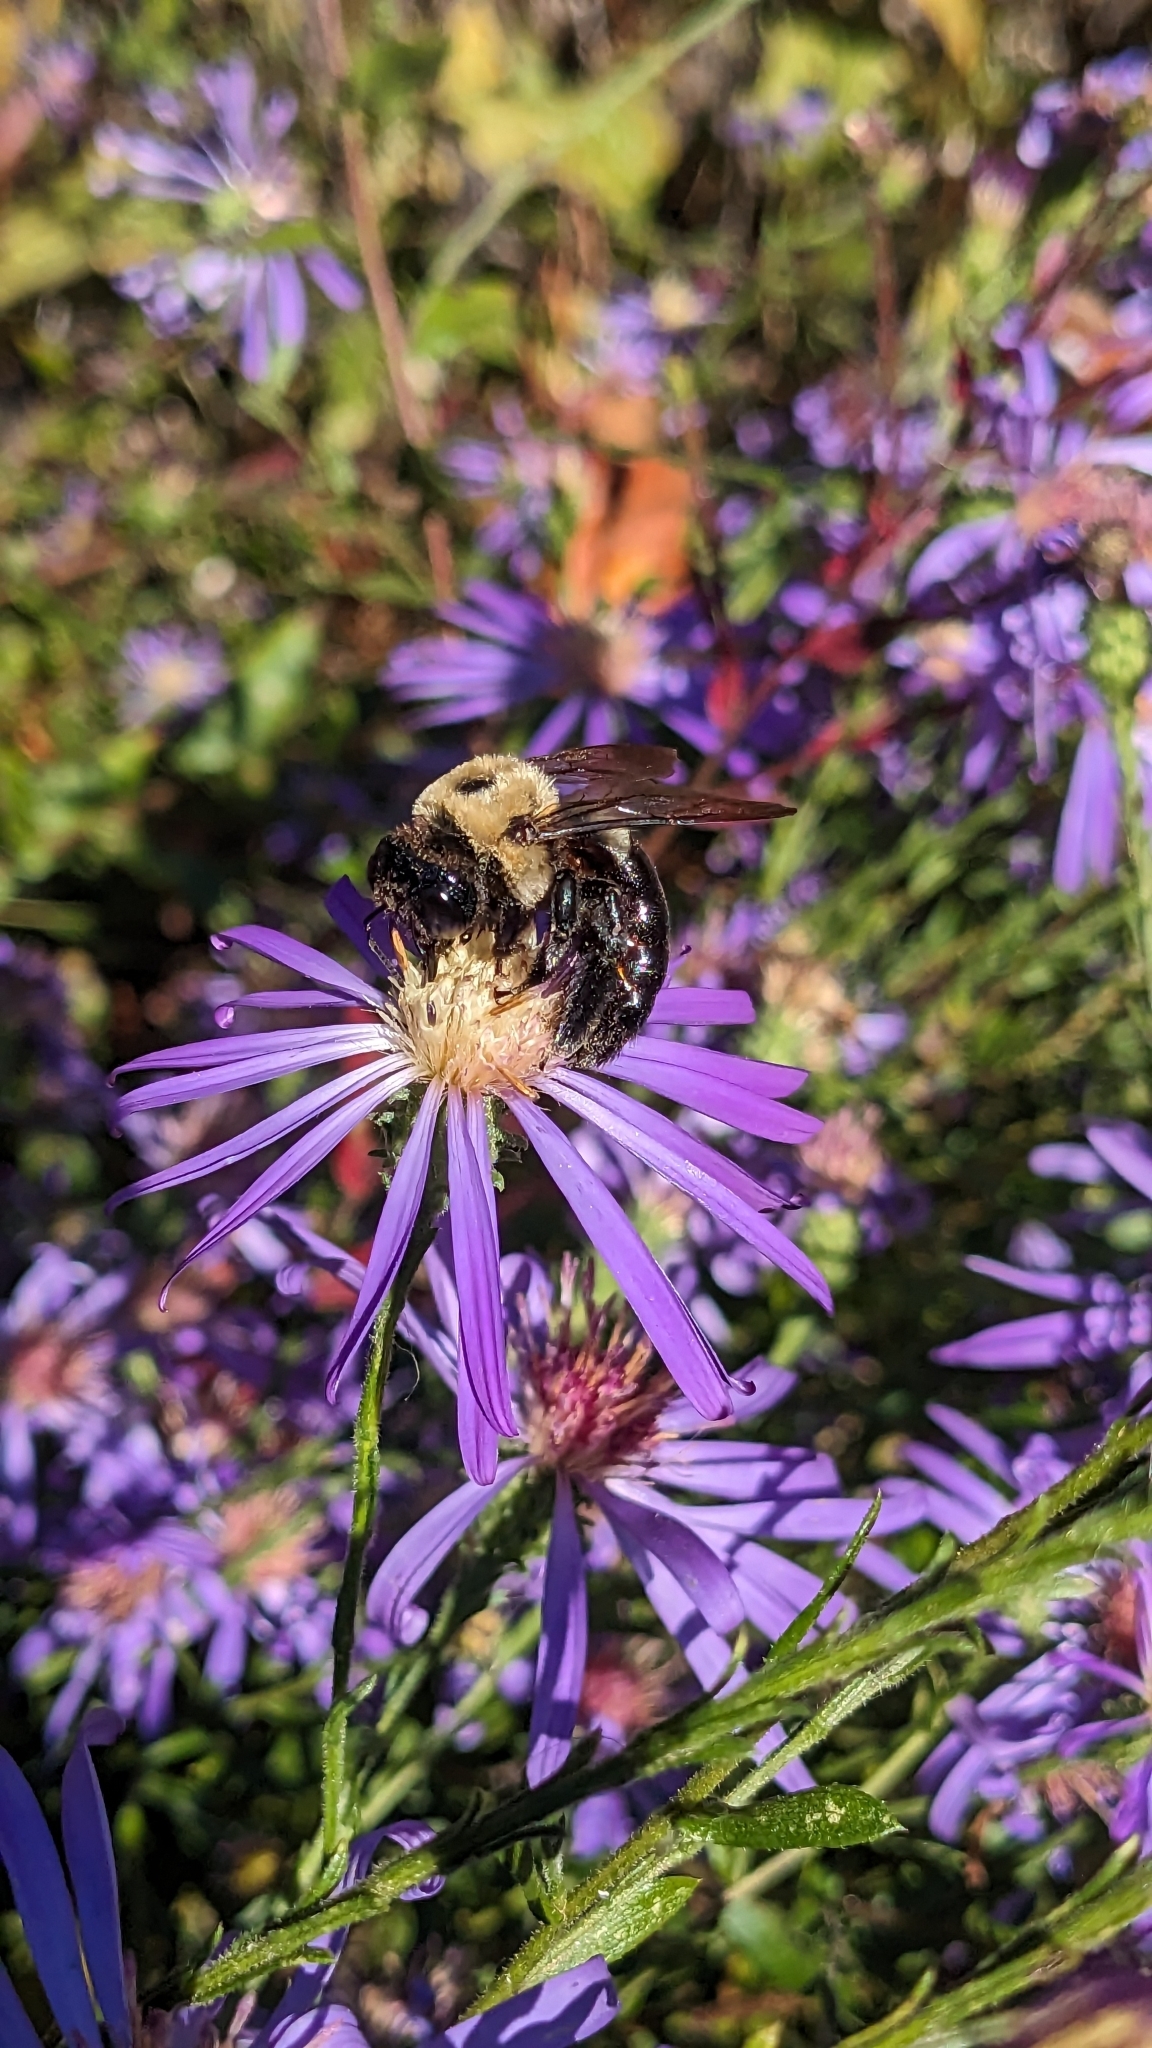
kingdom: Animalia
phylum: Arthropoda
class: Insecta
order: Hymenoptera
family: Apidae
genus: Xylocopa
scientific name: Xylocopa virginica
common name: Carpenter bee
